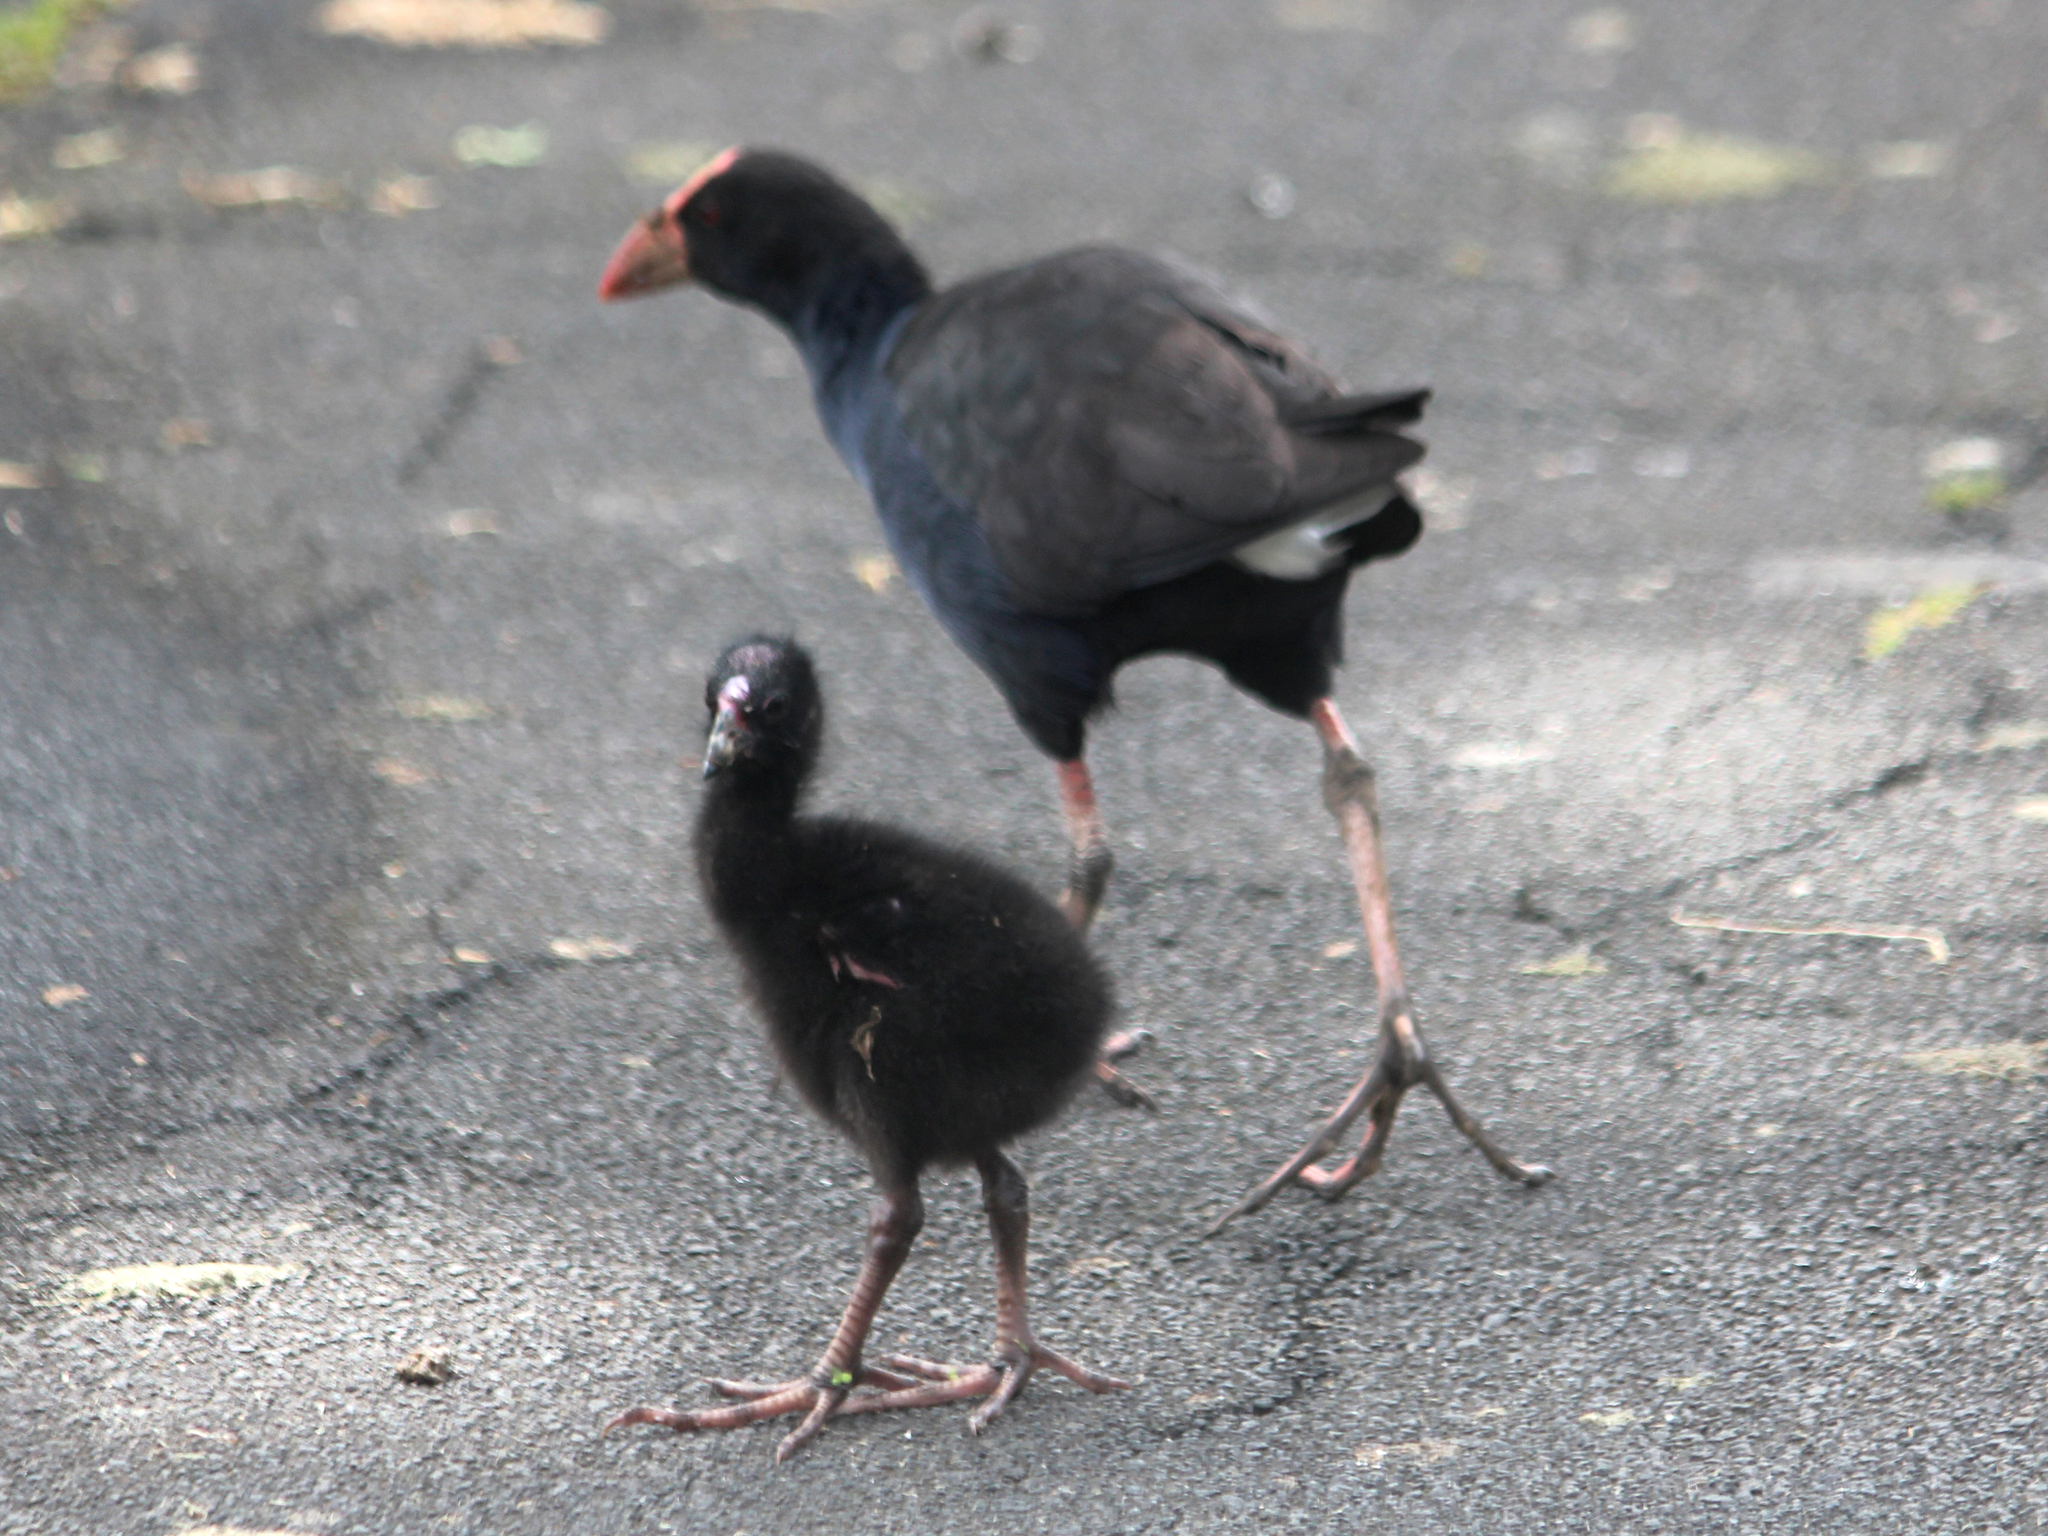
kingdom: Animalia
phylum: Chordata
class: Aves
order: Gruiformes
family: Rallidae
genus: Porphyrio
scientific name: Porphyrio melanotus
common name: Australasian swamphen
